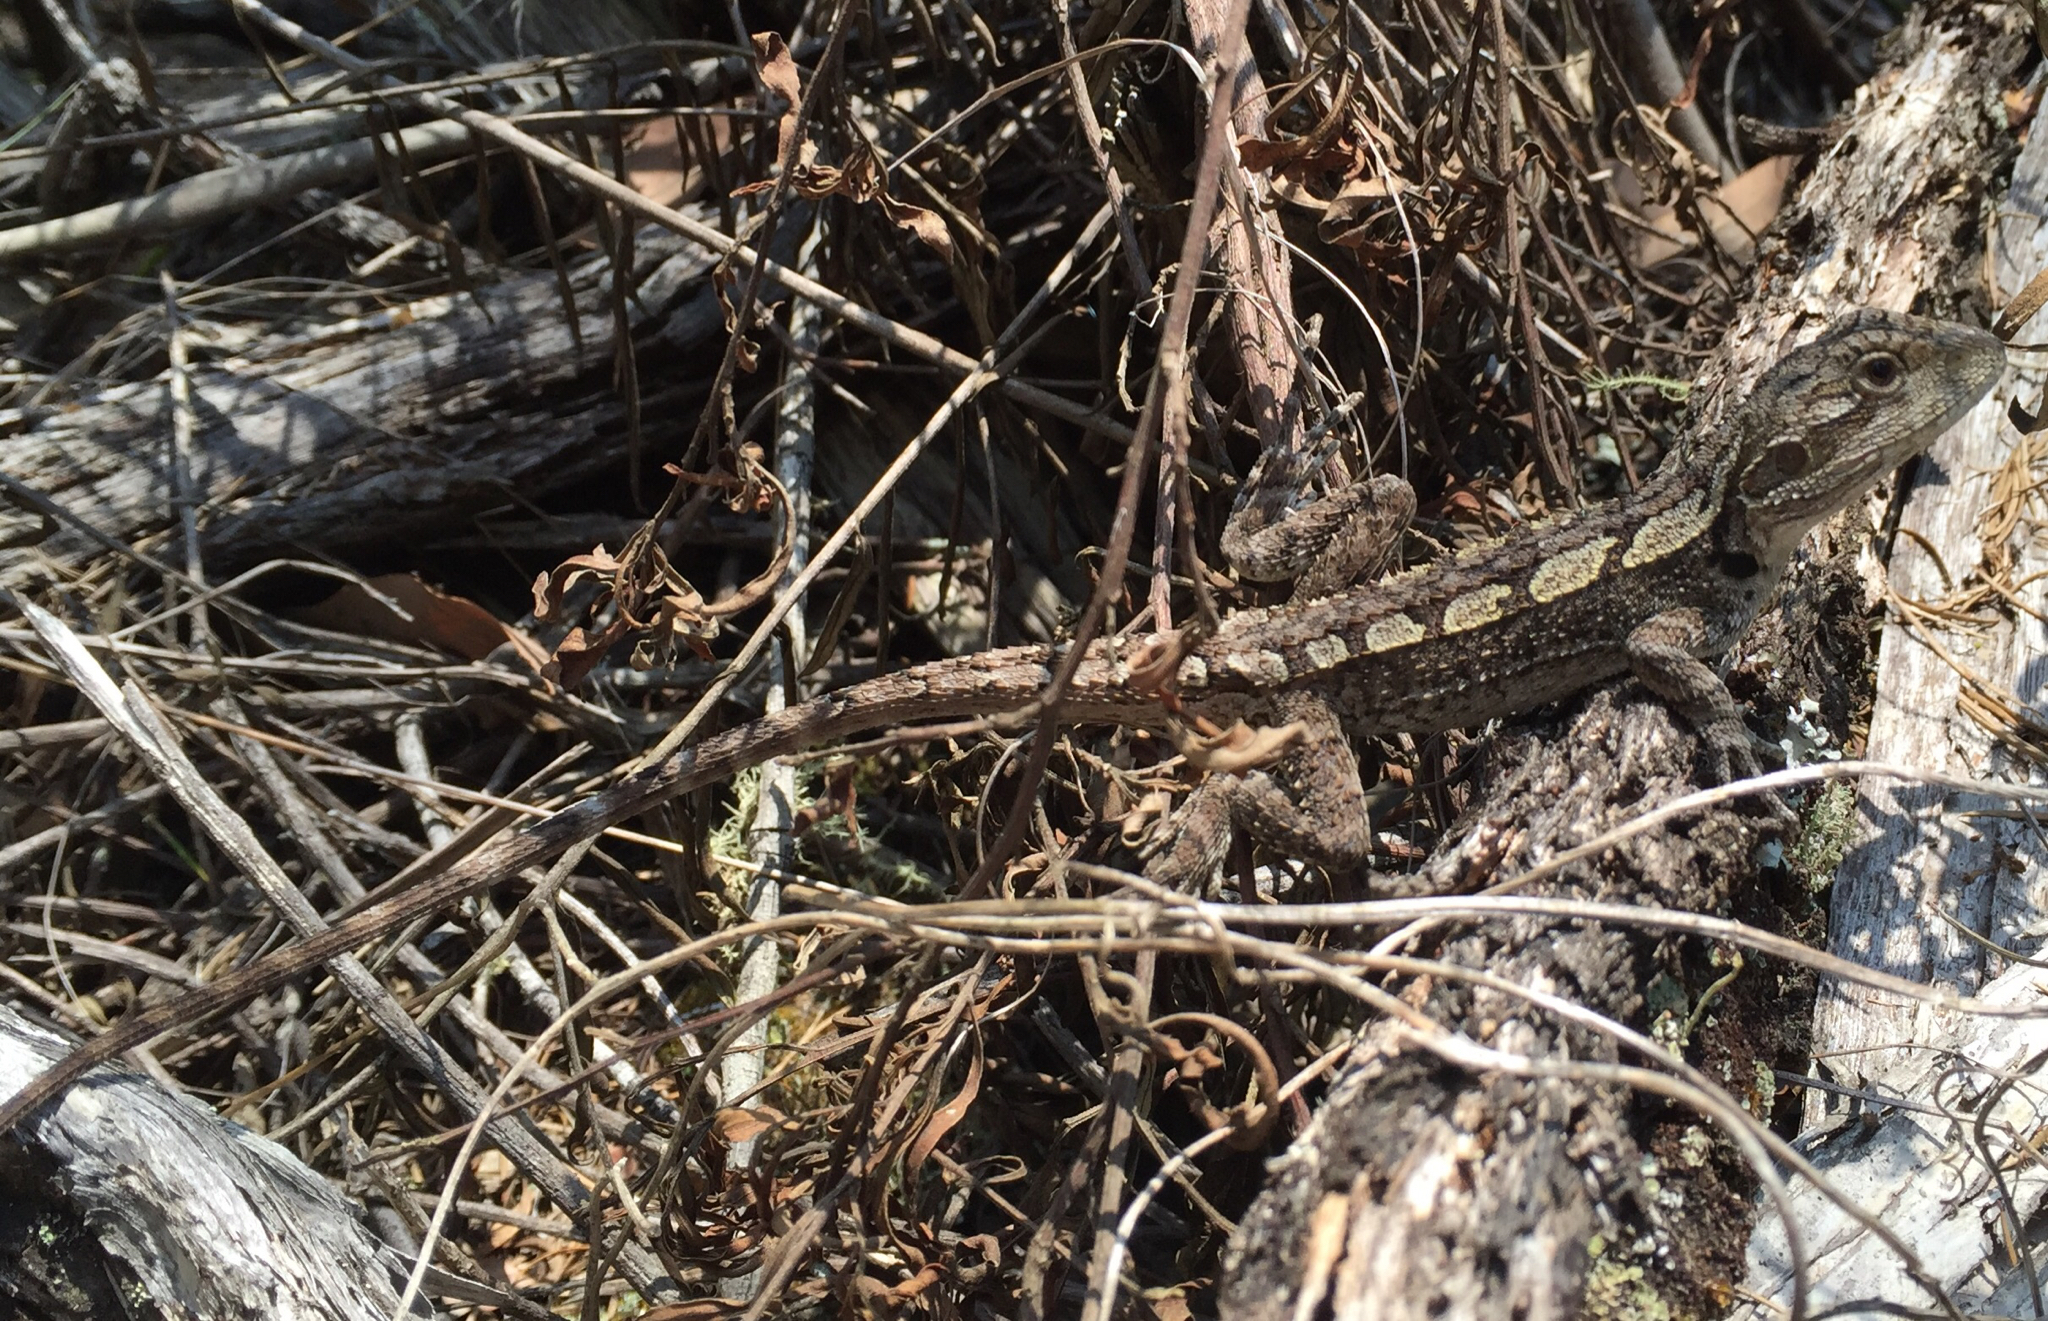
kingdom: Animalia
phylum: Chordata
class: Squamata
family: Agamidae
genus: Amphibolurus
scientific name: Amphibolurus muricatus
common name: Jacky lizard
